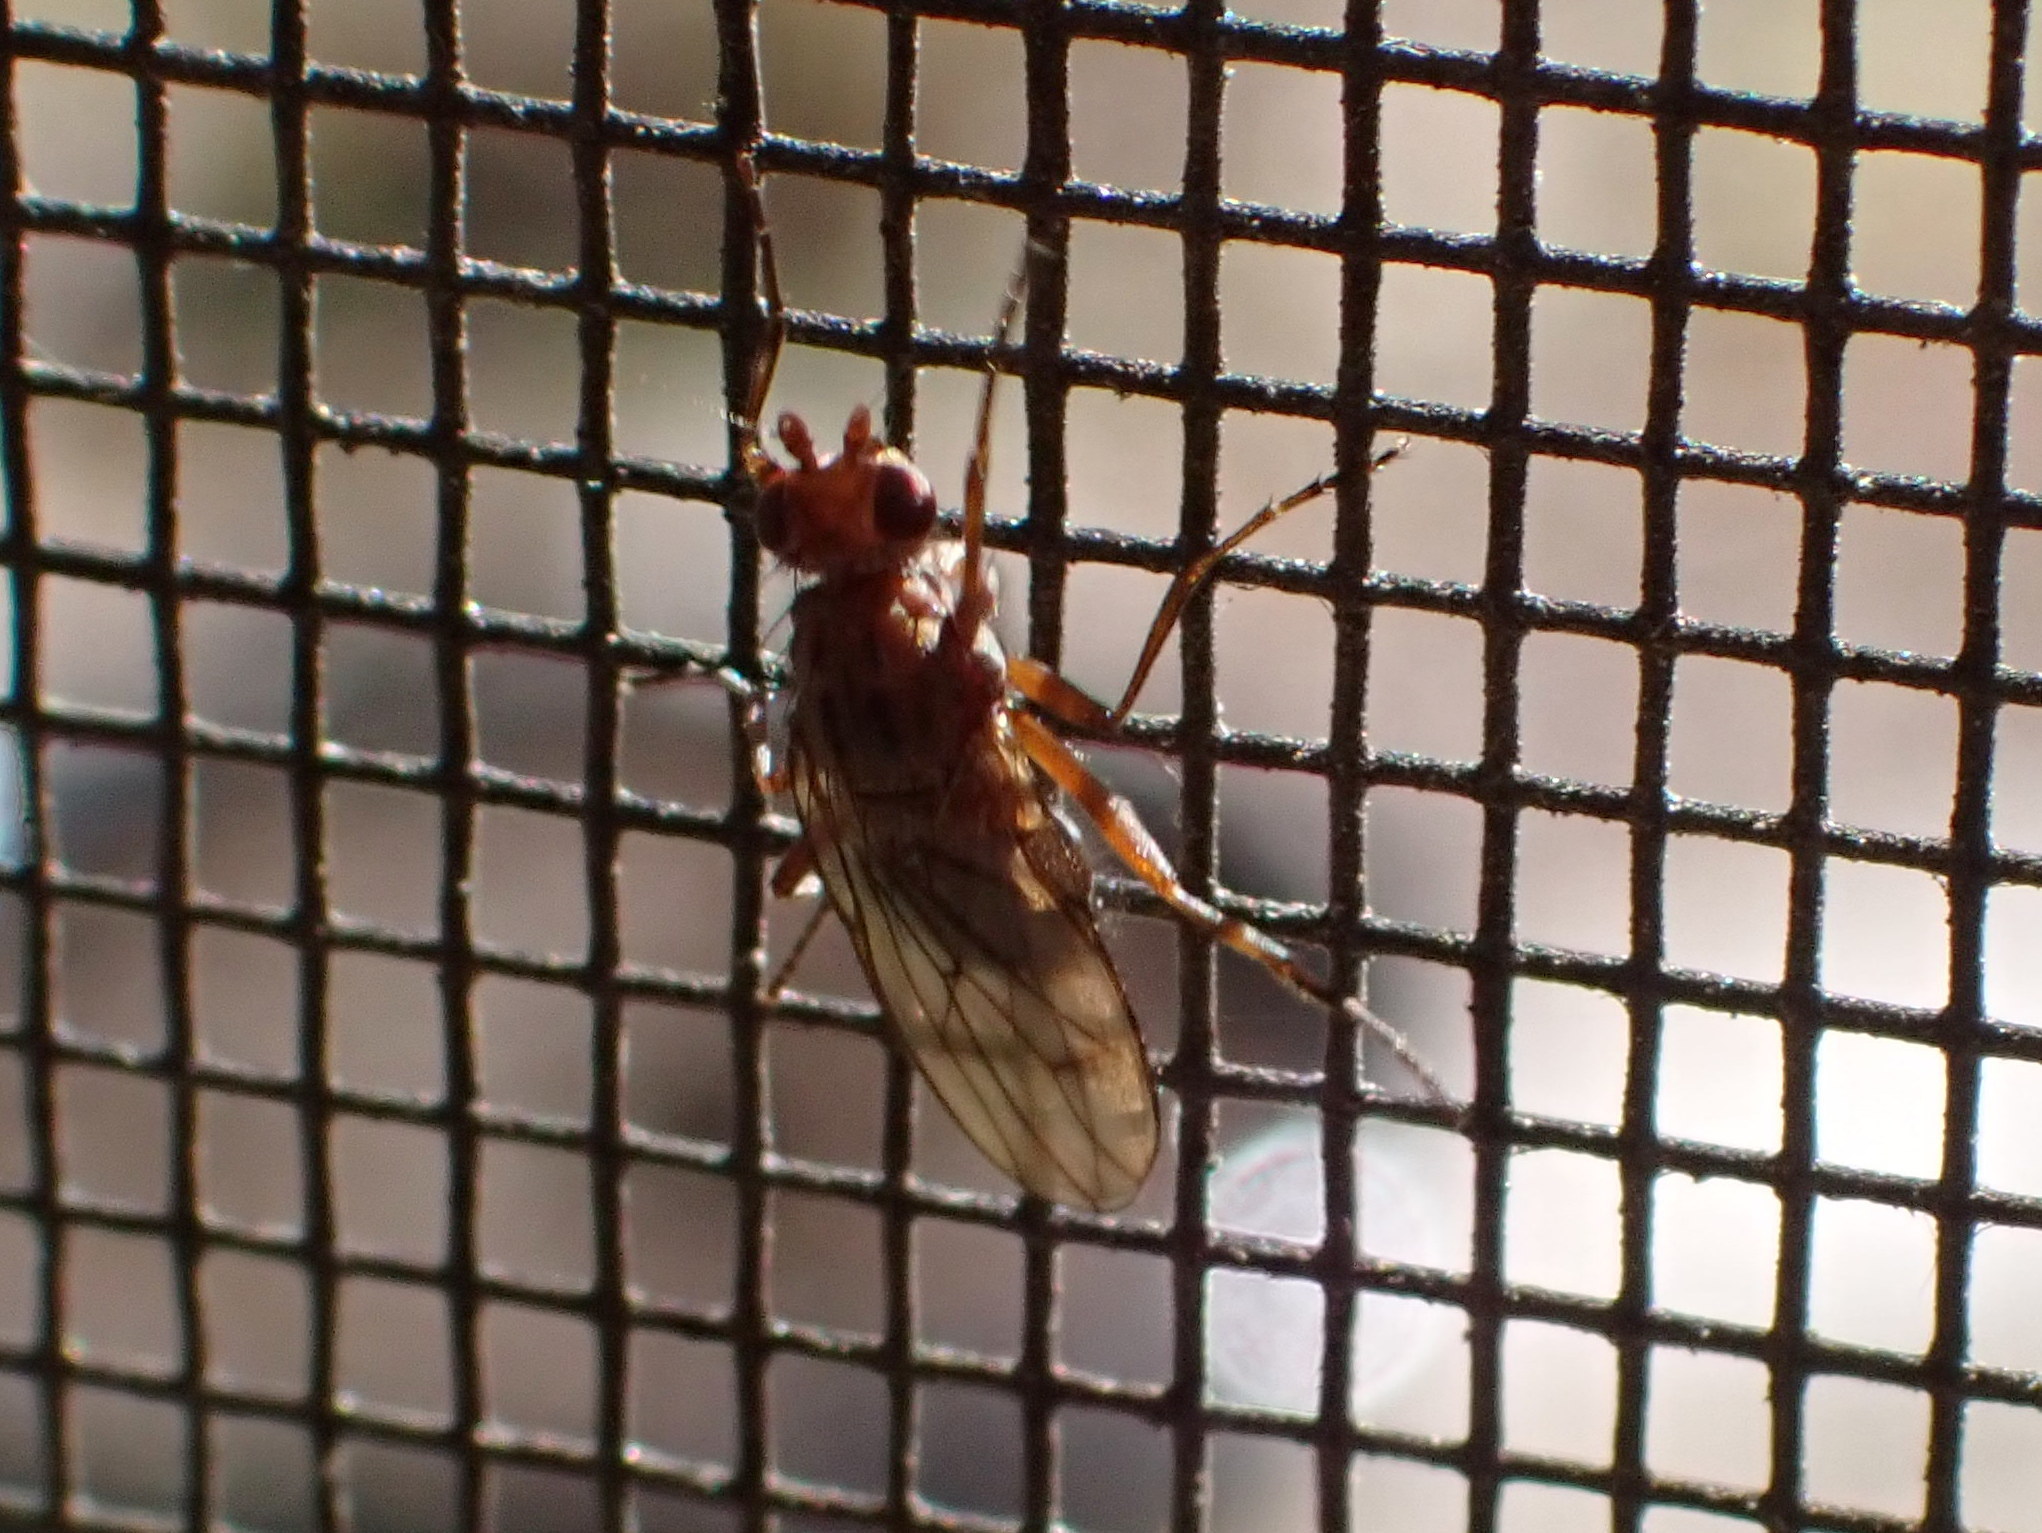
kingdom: Animalia
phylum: Arthropoda
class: Insecta
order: Diptera
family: Heleomyzidae
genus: Scoliocentra
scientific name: Scoliocentra tincta
